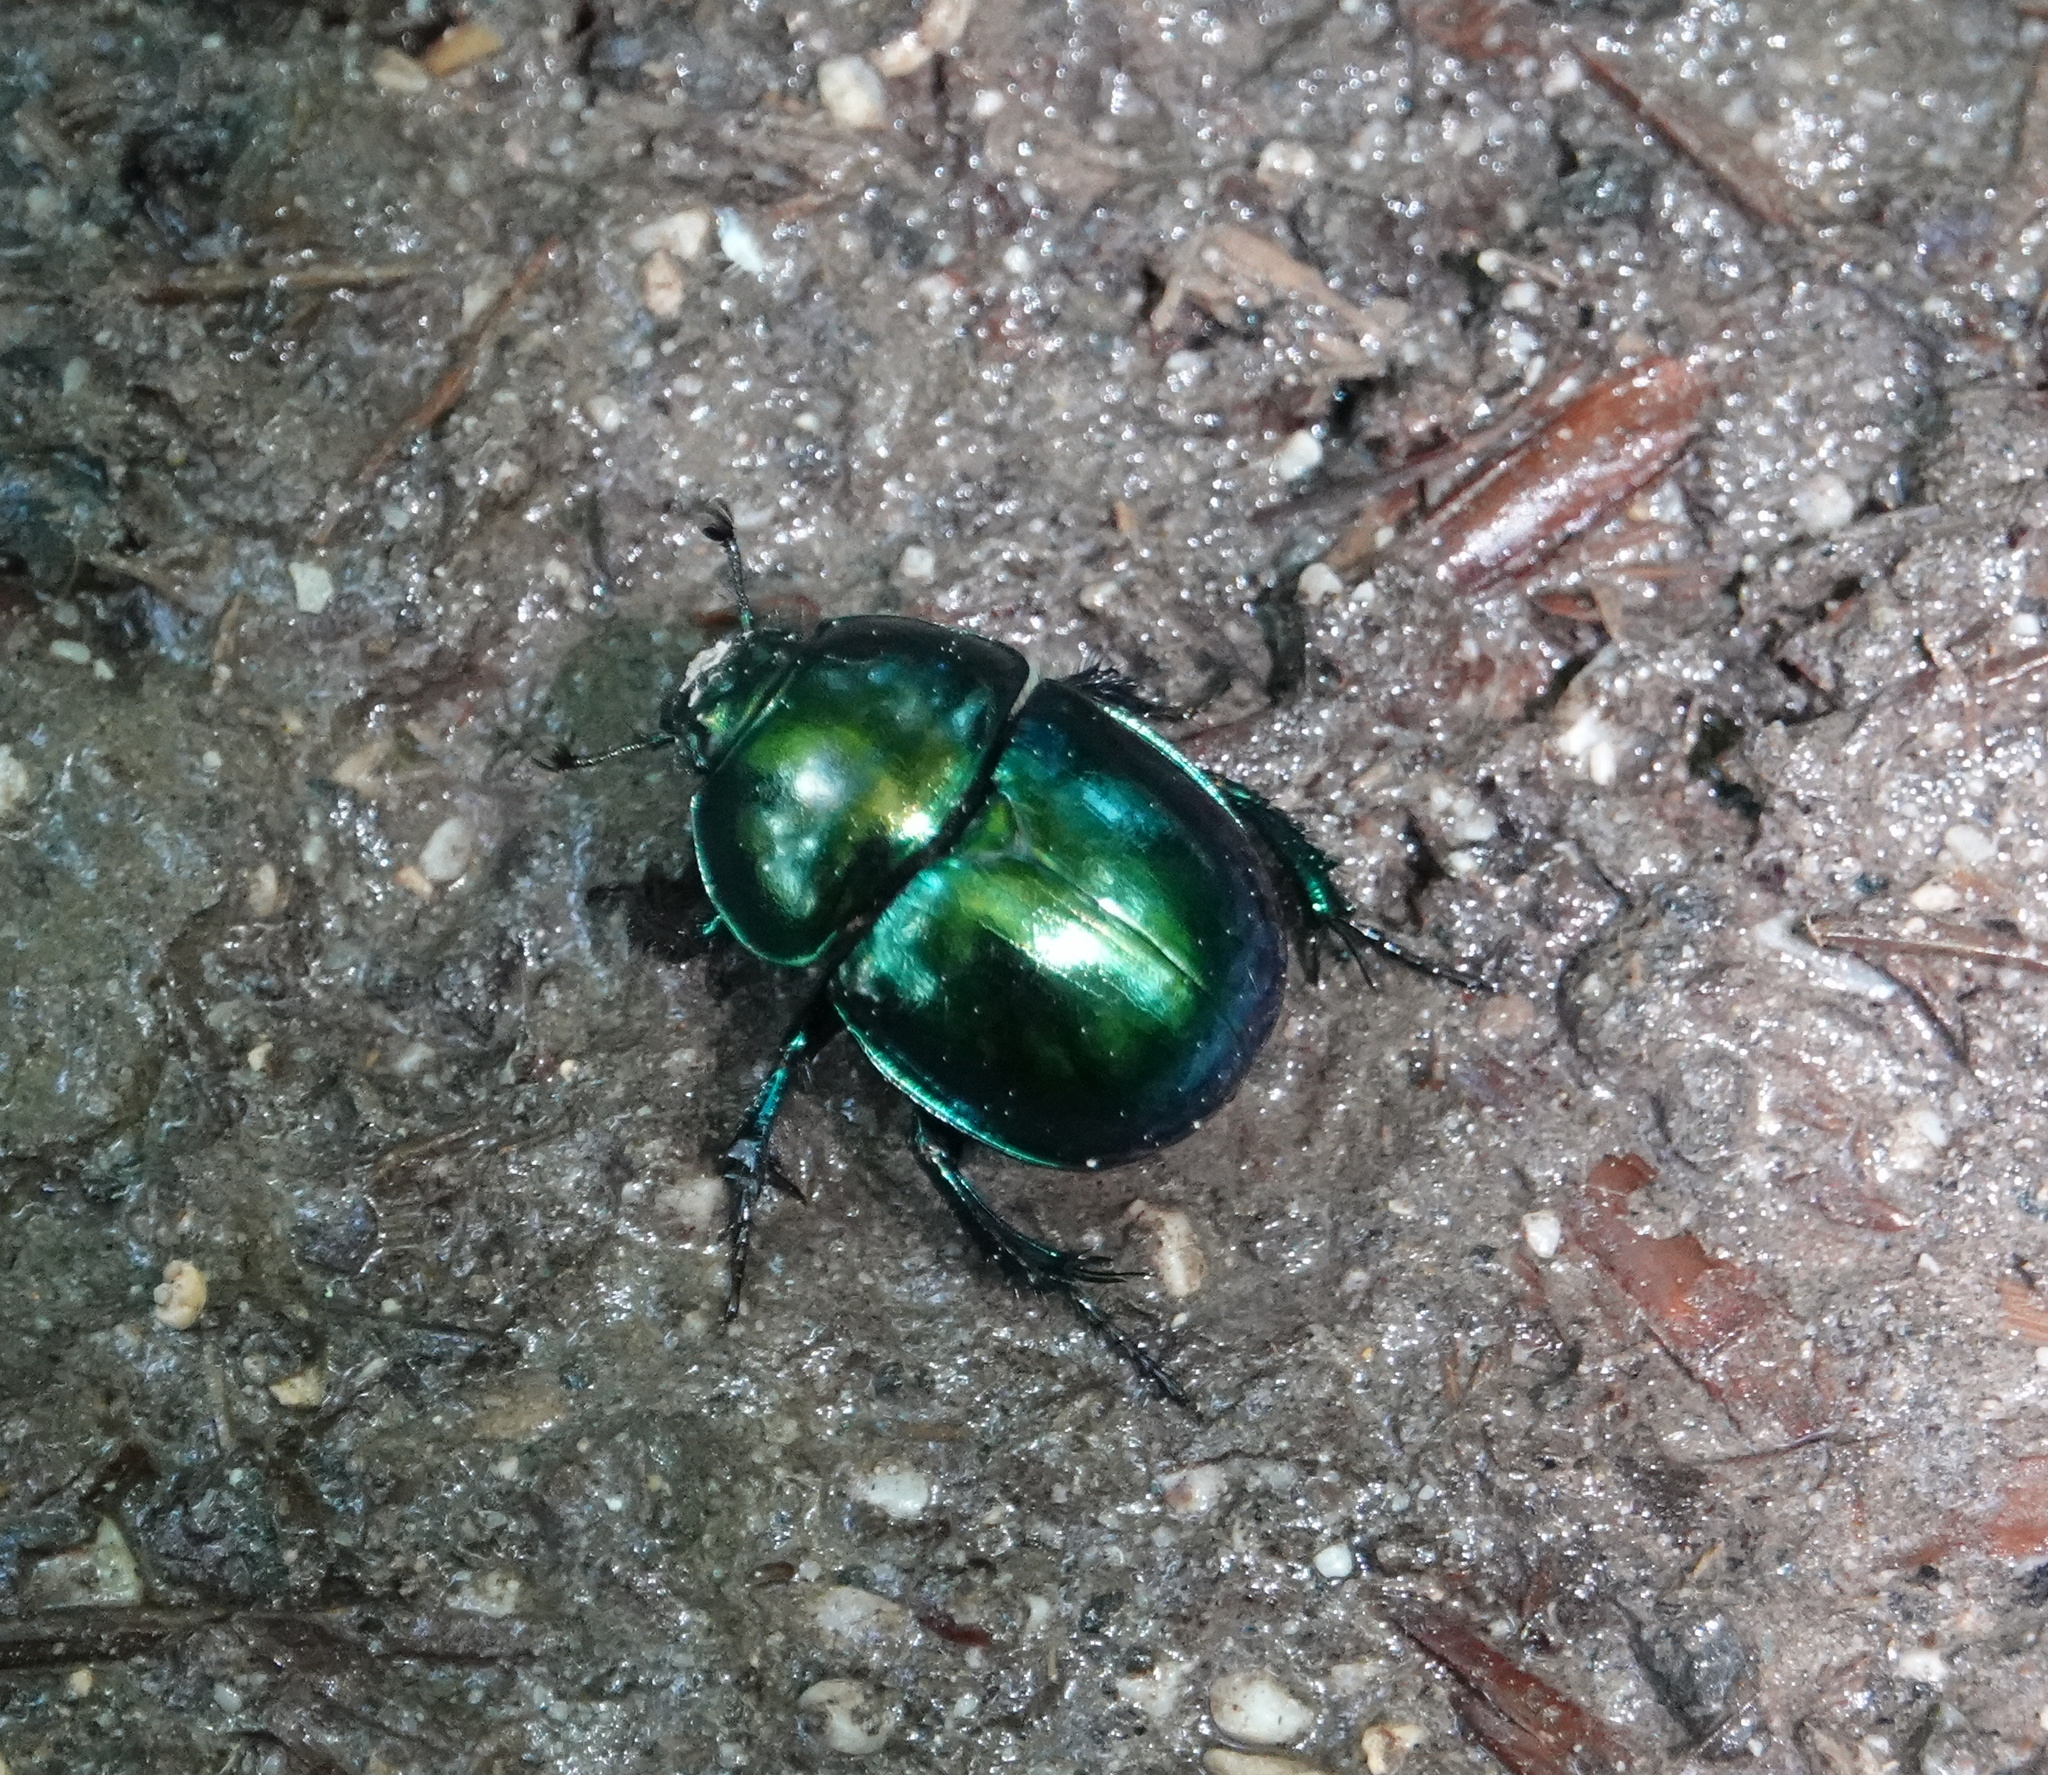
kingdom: Animalia
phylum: Arthropoda
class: Insecta
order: Coleoptera
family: Geotrupidae
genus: Trypocopris
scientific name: Trypocopris vernalis
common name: Spring dumbledor
